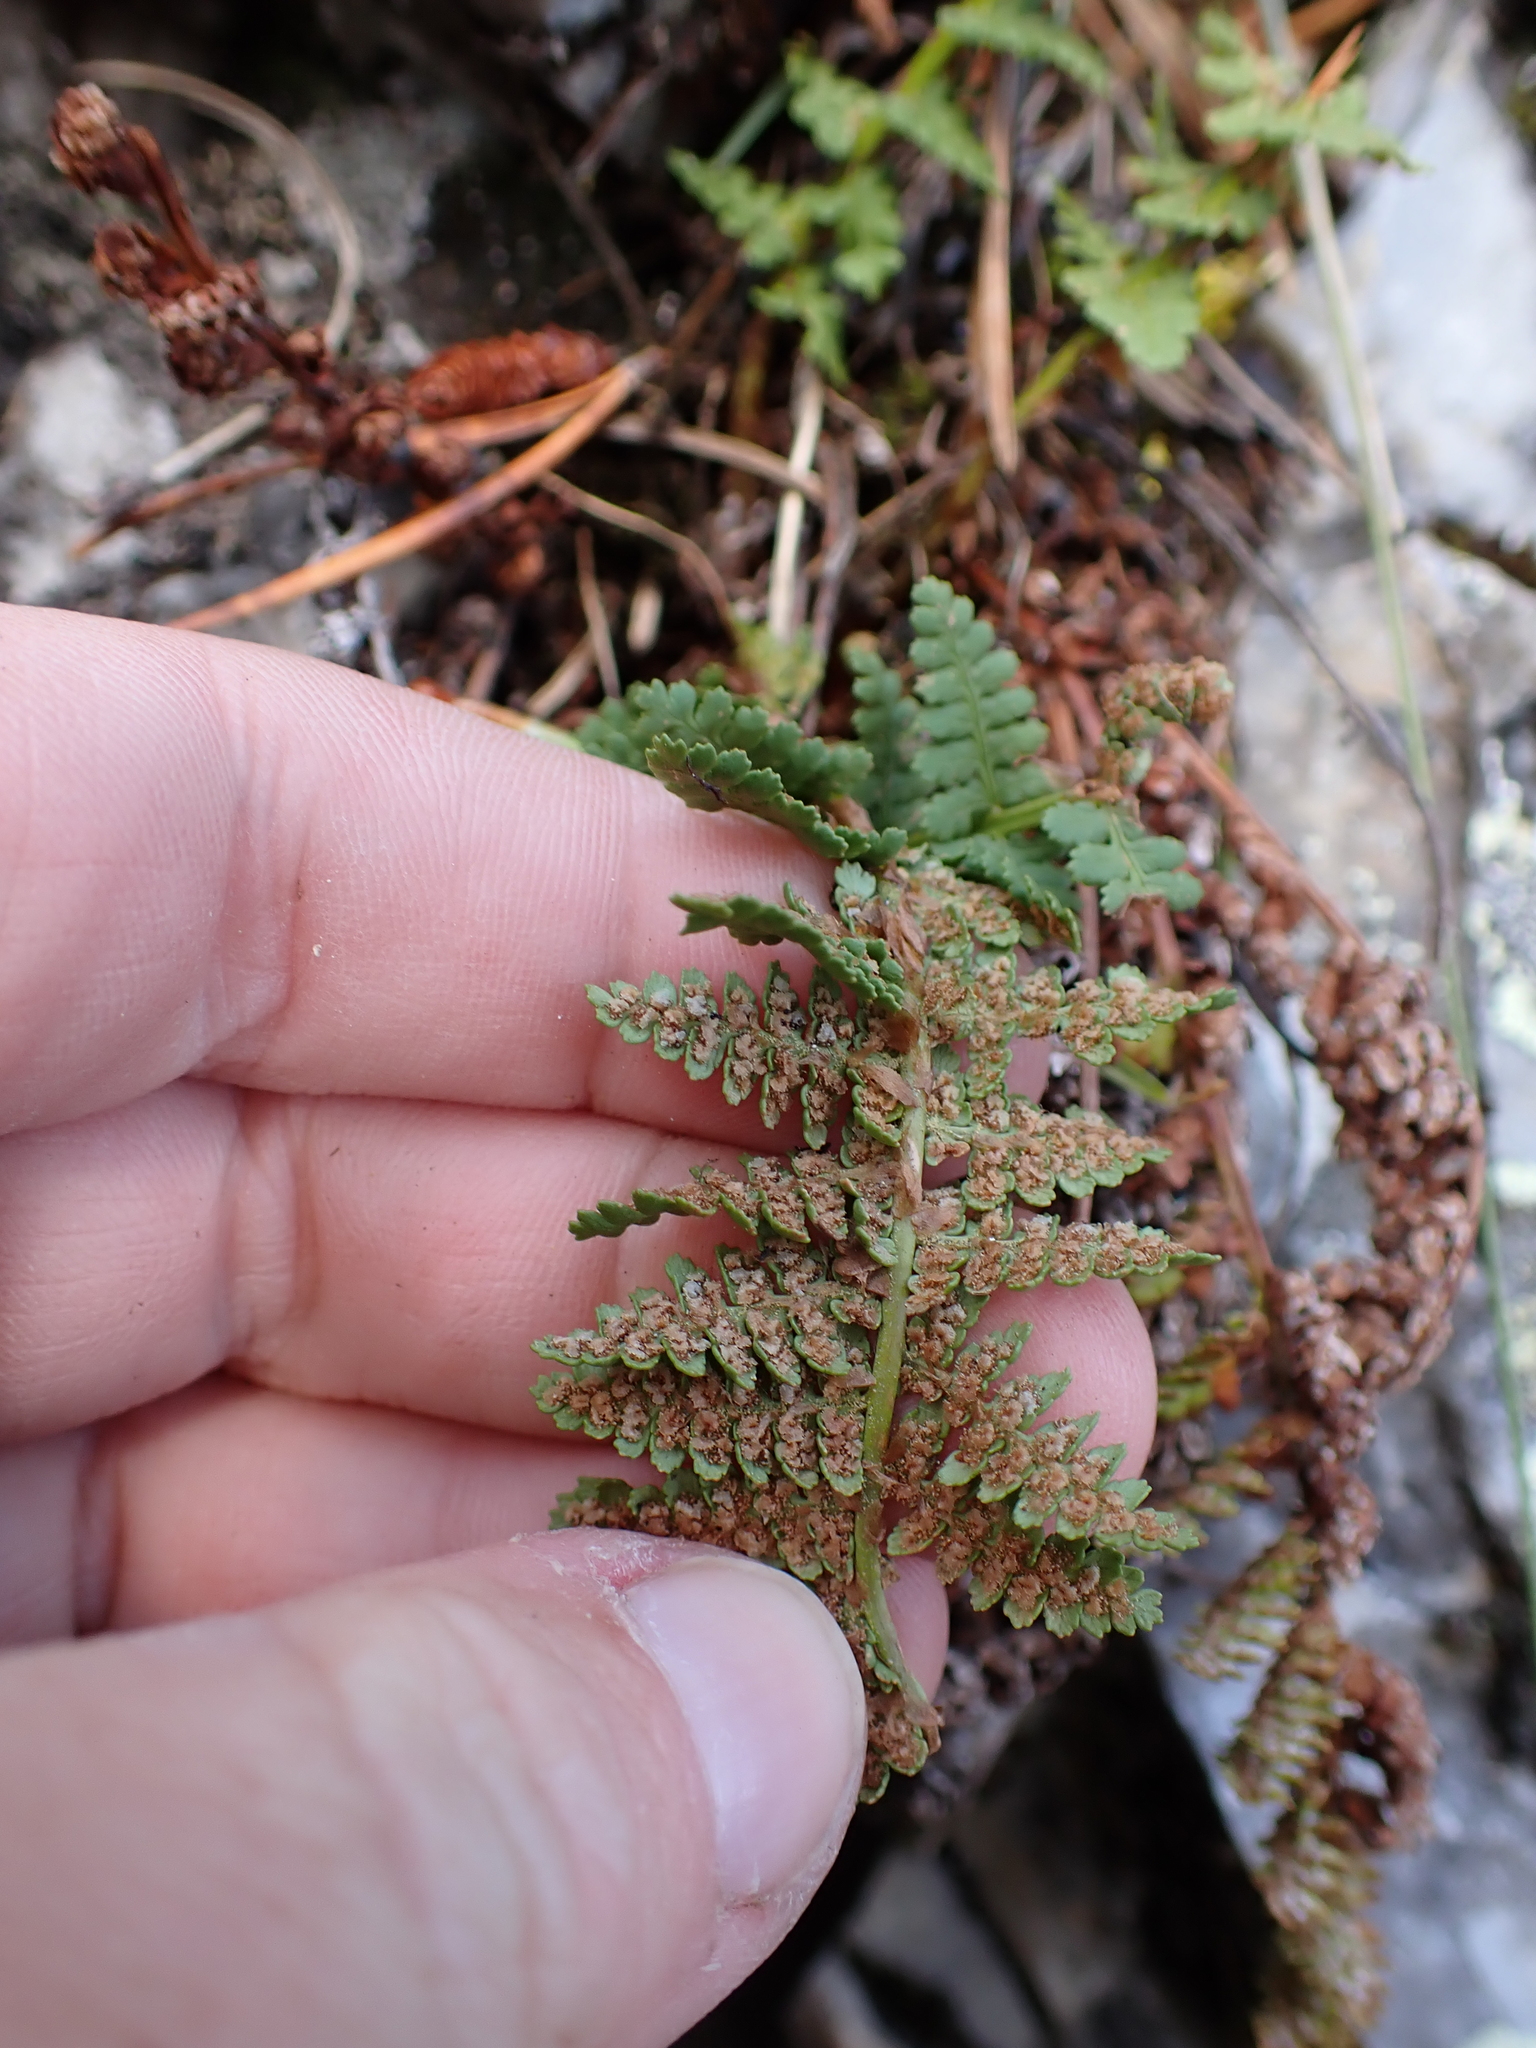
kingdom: Plantae
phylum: Tracheophyta
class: Polypodiopsida
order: Polypodiales
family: Dryopteridaceae
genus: Dryopteris
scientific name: Dryopteris fragrans
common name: Fragrant wood fern
